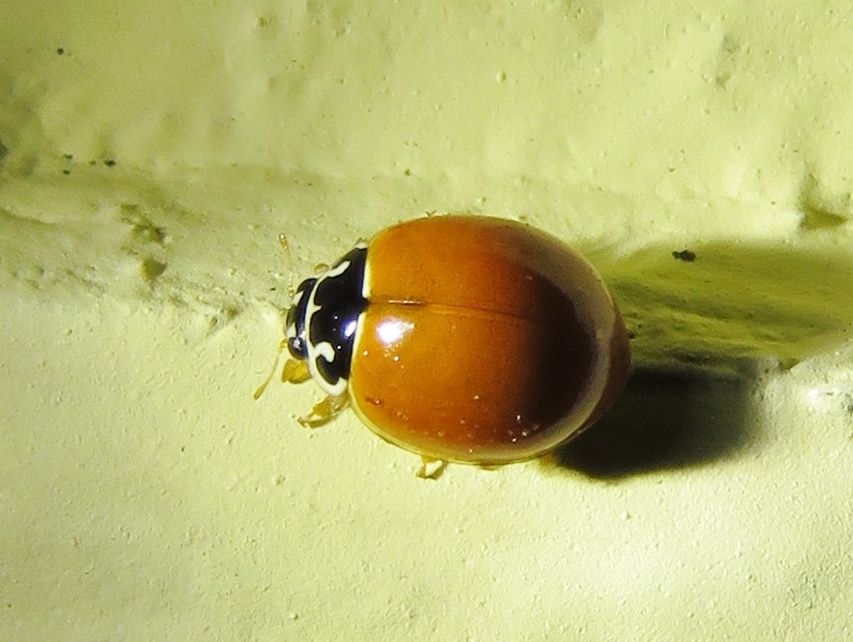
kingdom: Animalia
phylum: Arthropoda
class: Insecta
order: Coleoptera
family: Coccinellidae
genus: Cycloneda
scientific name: Cycloneda munda
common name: Polished lady beetle
